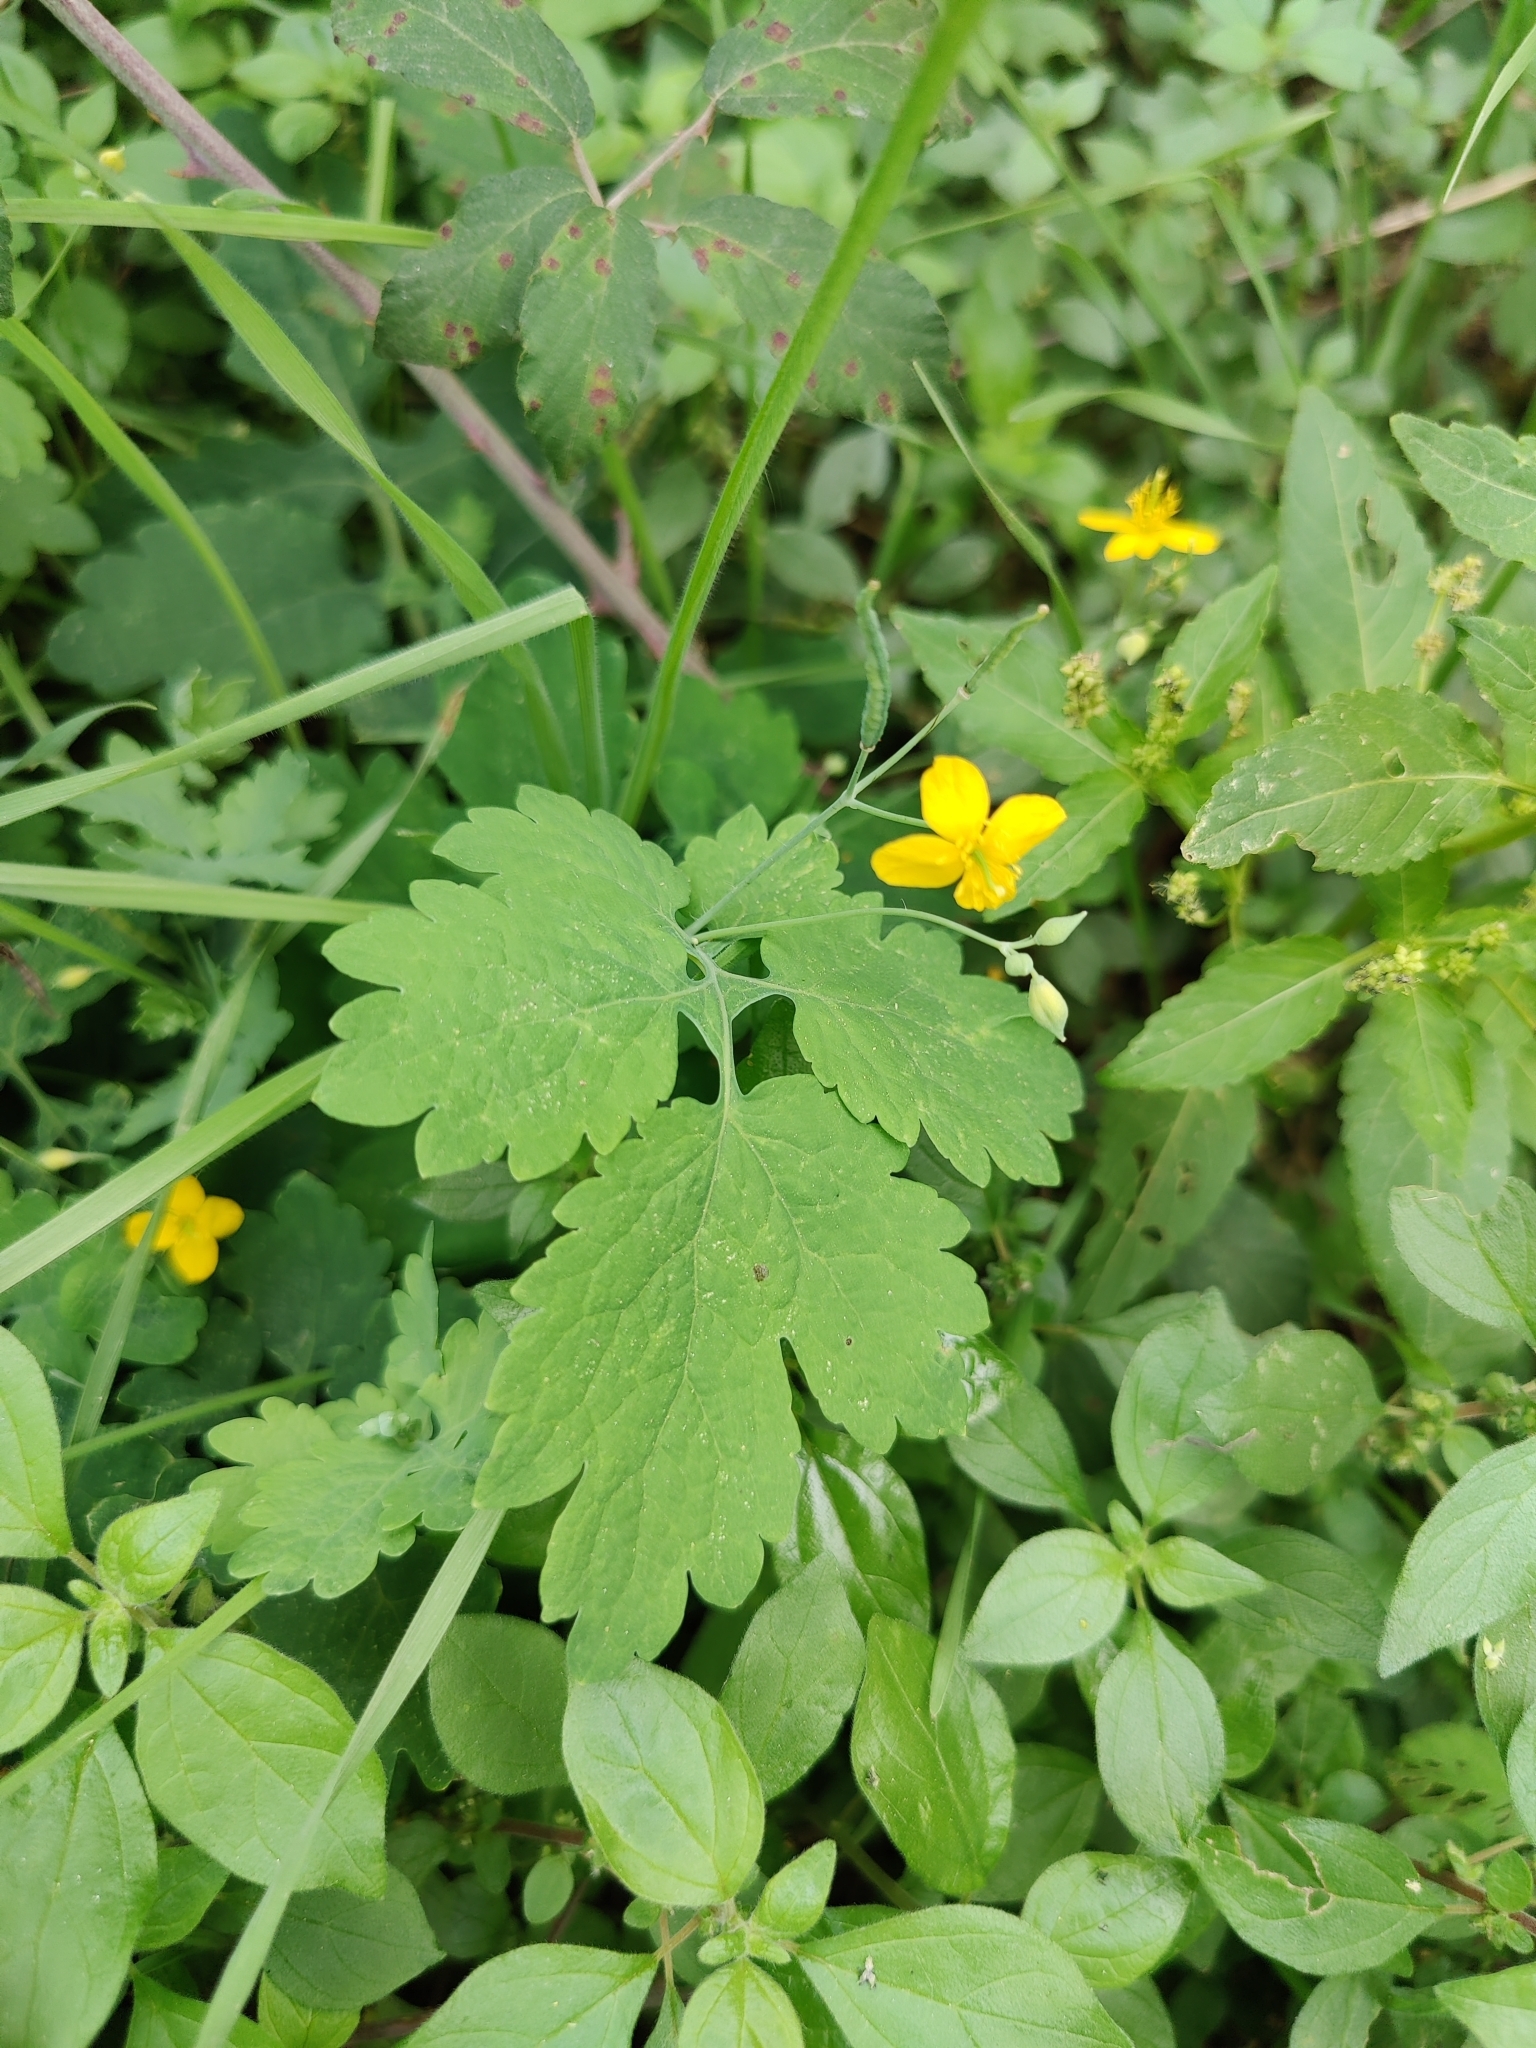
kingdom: Plantae
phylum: Tracheophyta
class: Magnoliopsida
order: Ranunculales
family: Papaveraceae
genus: Chelidonium
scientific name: Chelidonium majus
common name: Greater celandine
